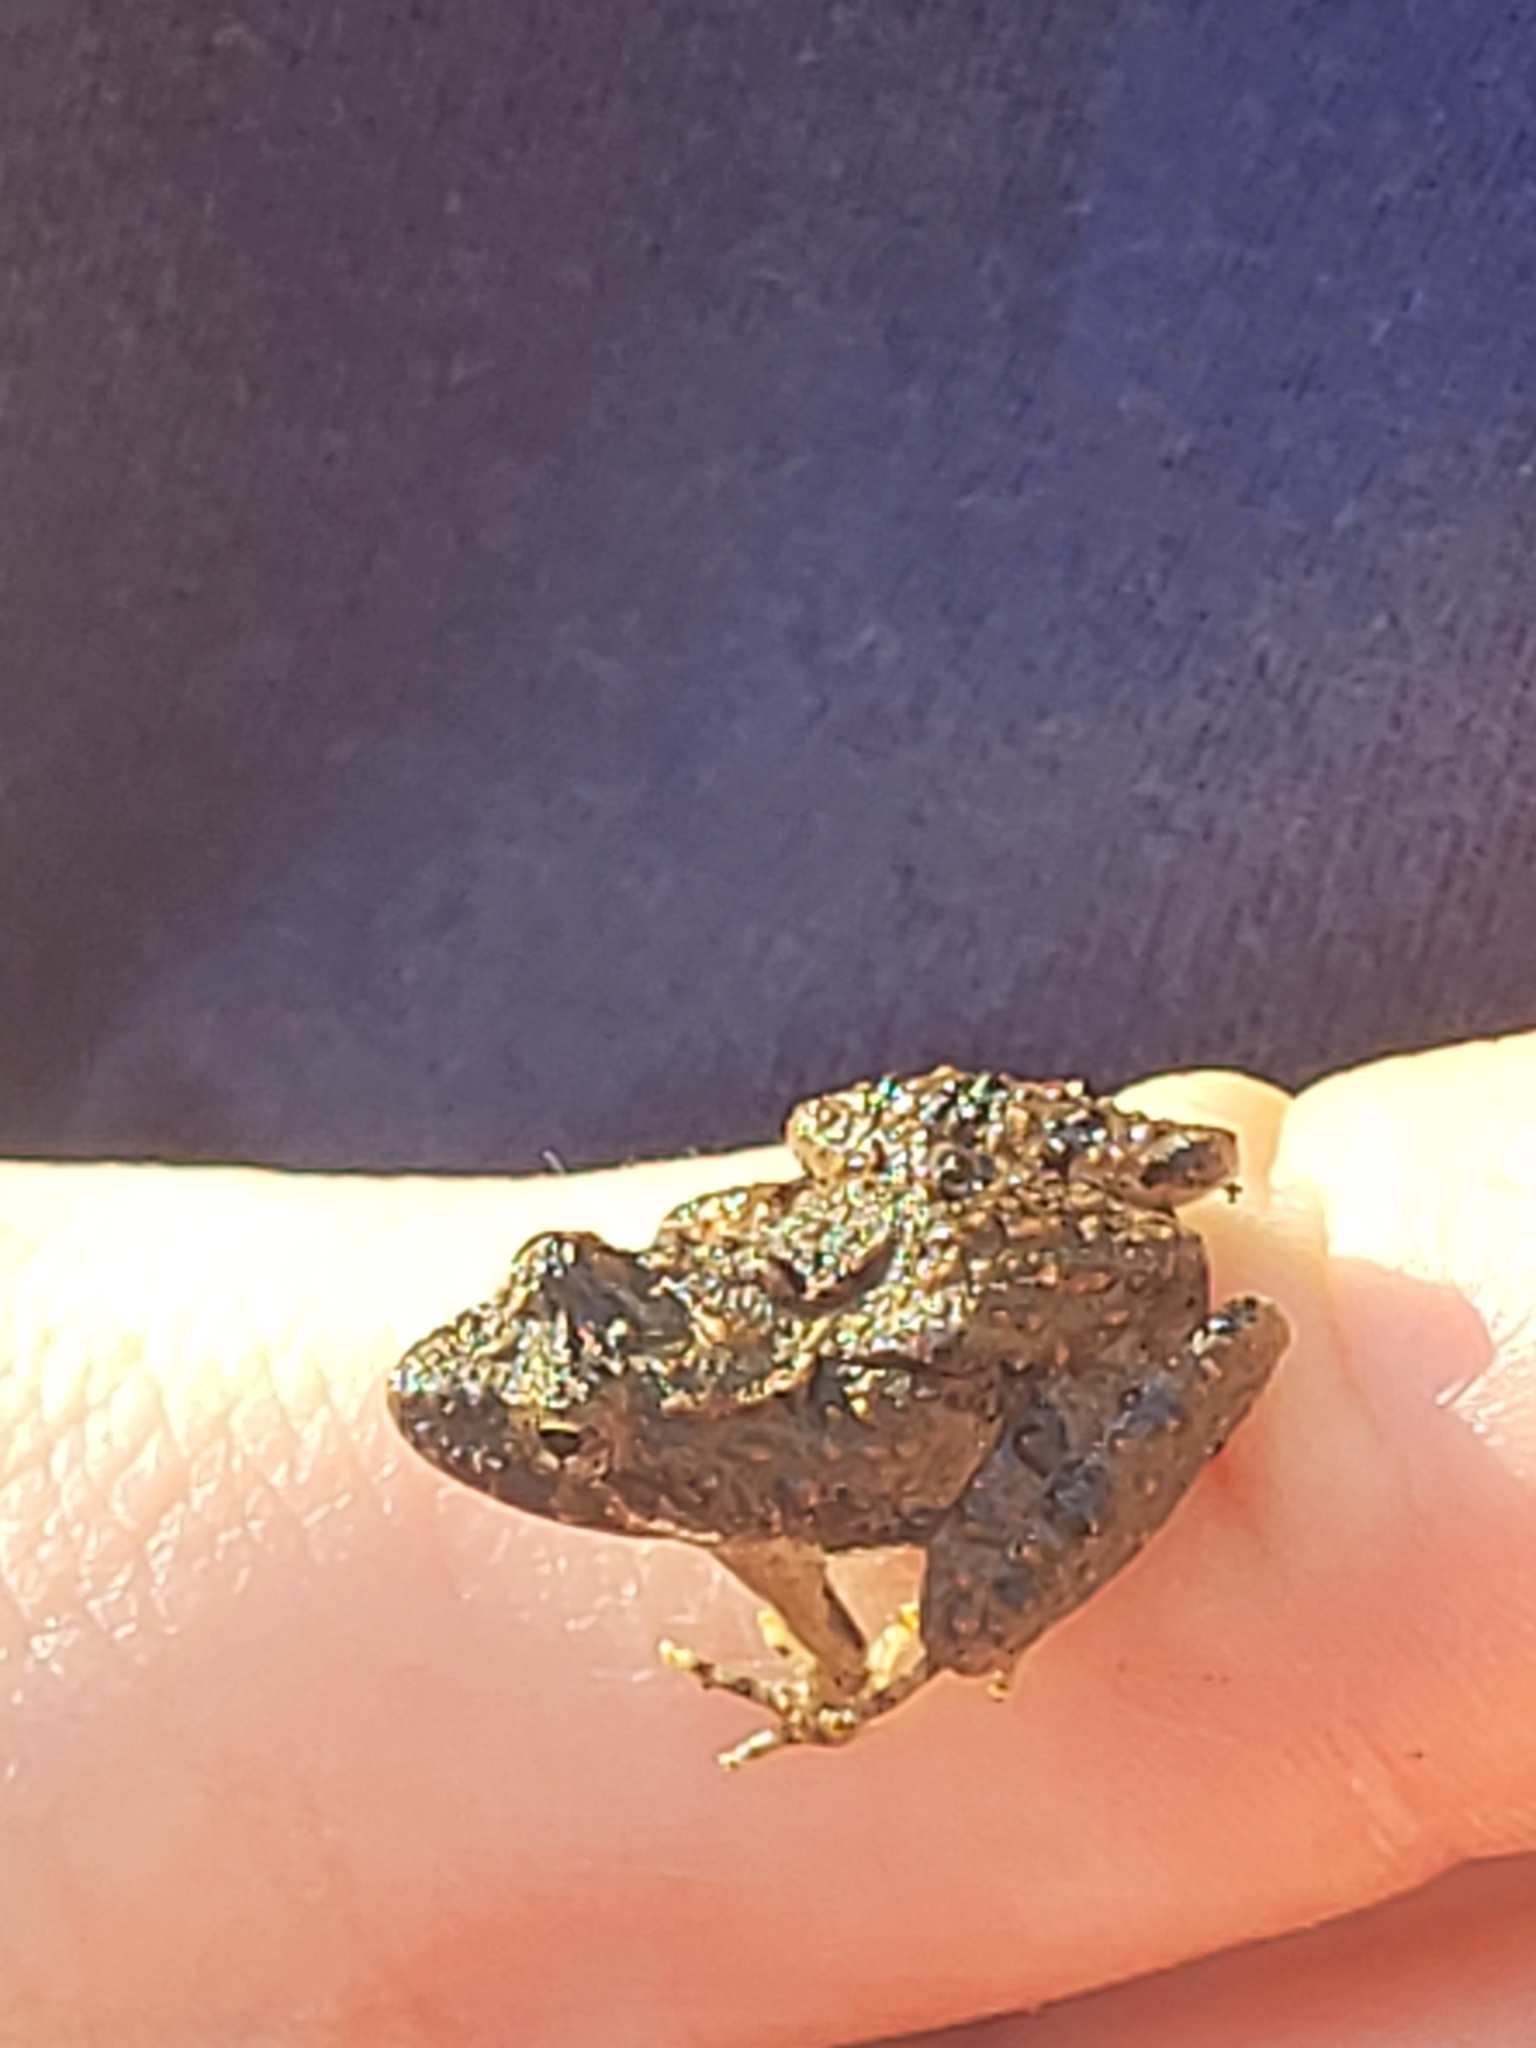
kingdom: Animalia
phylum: Chordata
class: Amphibia
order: Anura
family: Hylidae
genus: Acris
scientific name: Acris crepitans
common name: Northern cricket frog
